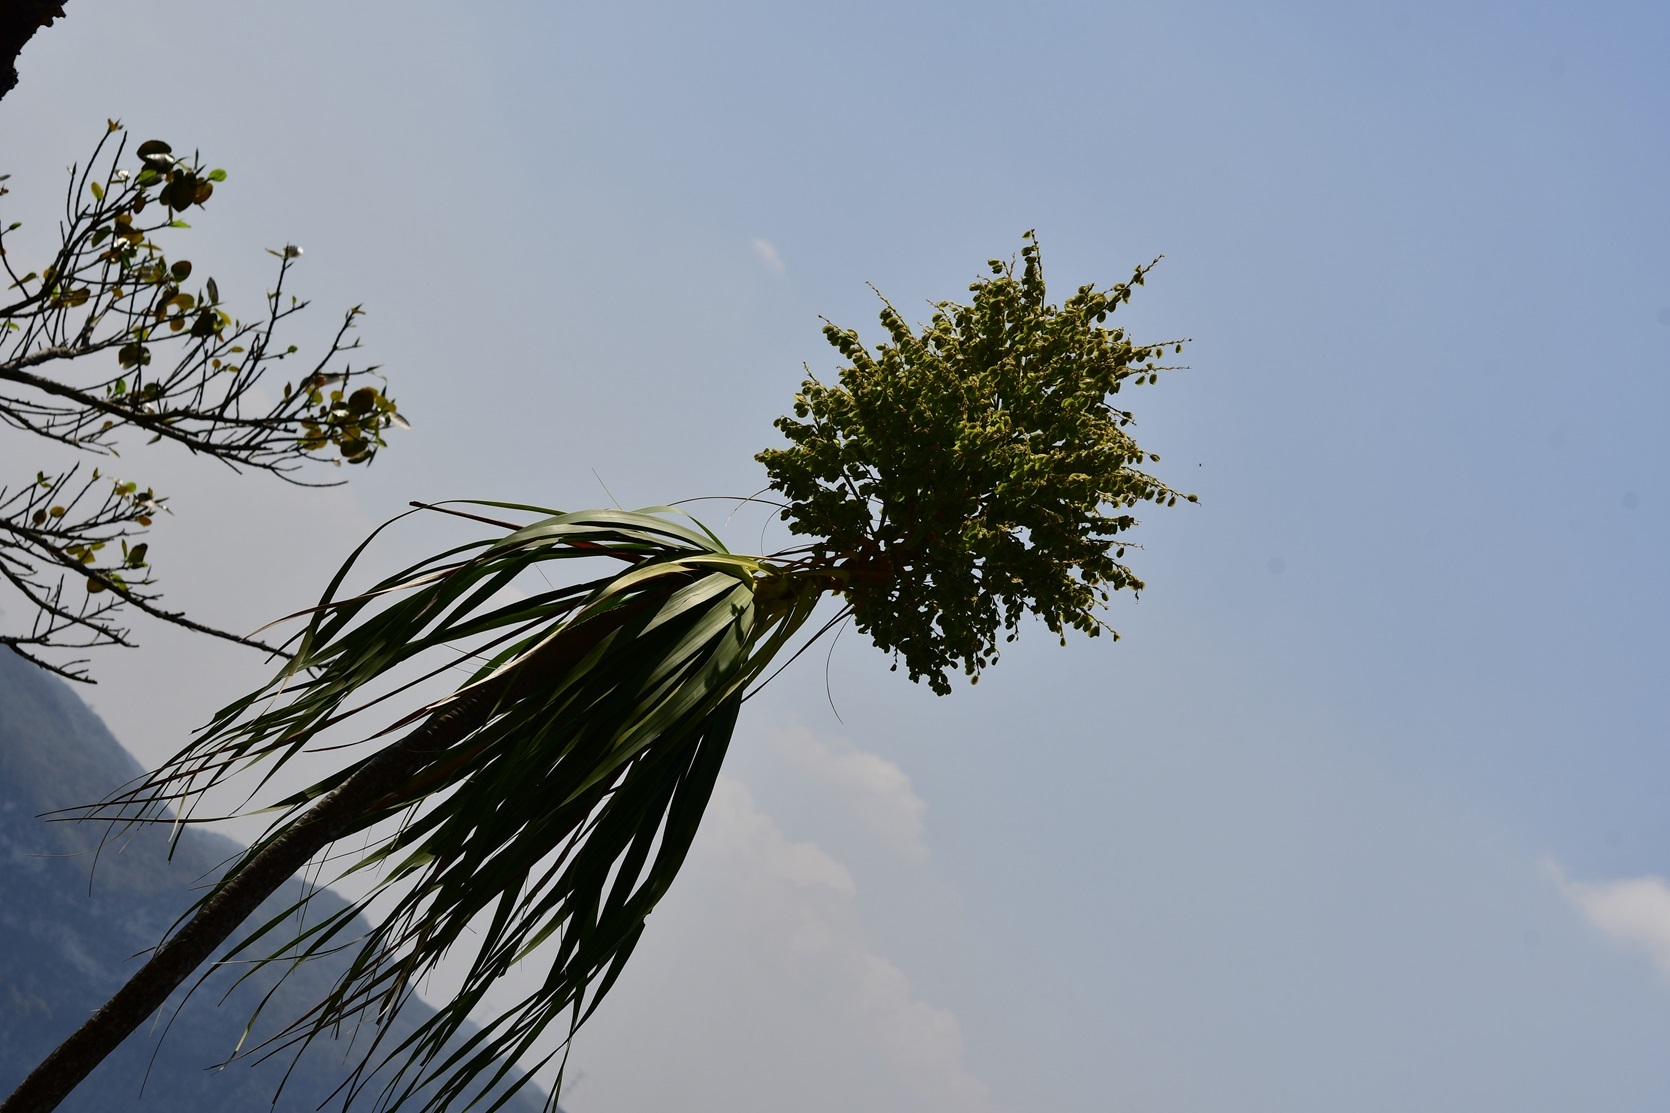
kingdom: Plantae
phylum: Tracheophyta
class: Liliopsida
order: Asparagales
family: Asparagaceae
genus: Beaucarnea
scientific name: Beaucarnea goldmanii
